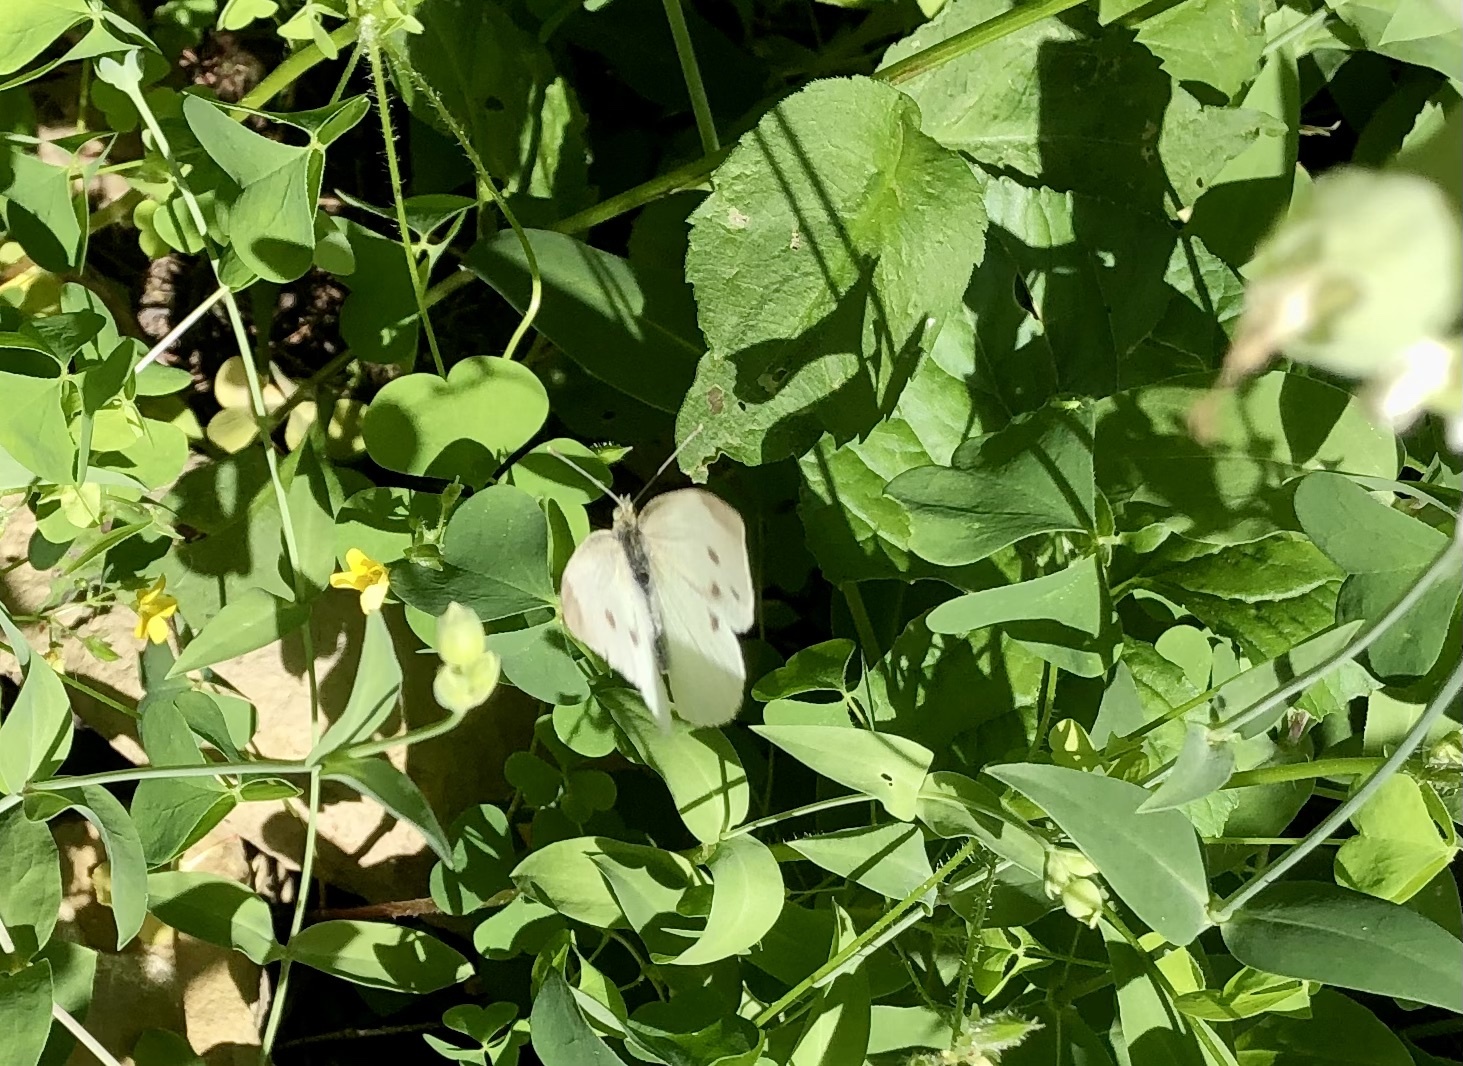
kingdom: Animalia
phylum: Arthropoda
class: Insecta
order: Lepidoptera
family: Pieridae
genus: Pieris
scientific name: Pieris rapae
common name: Small white
